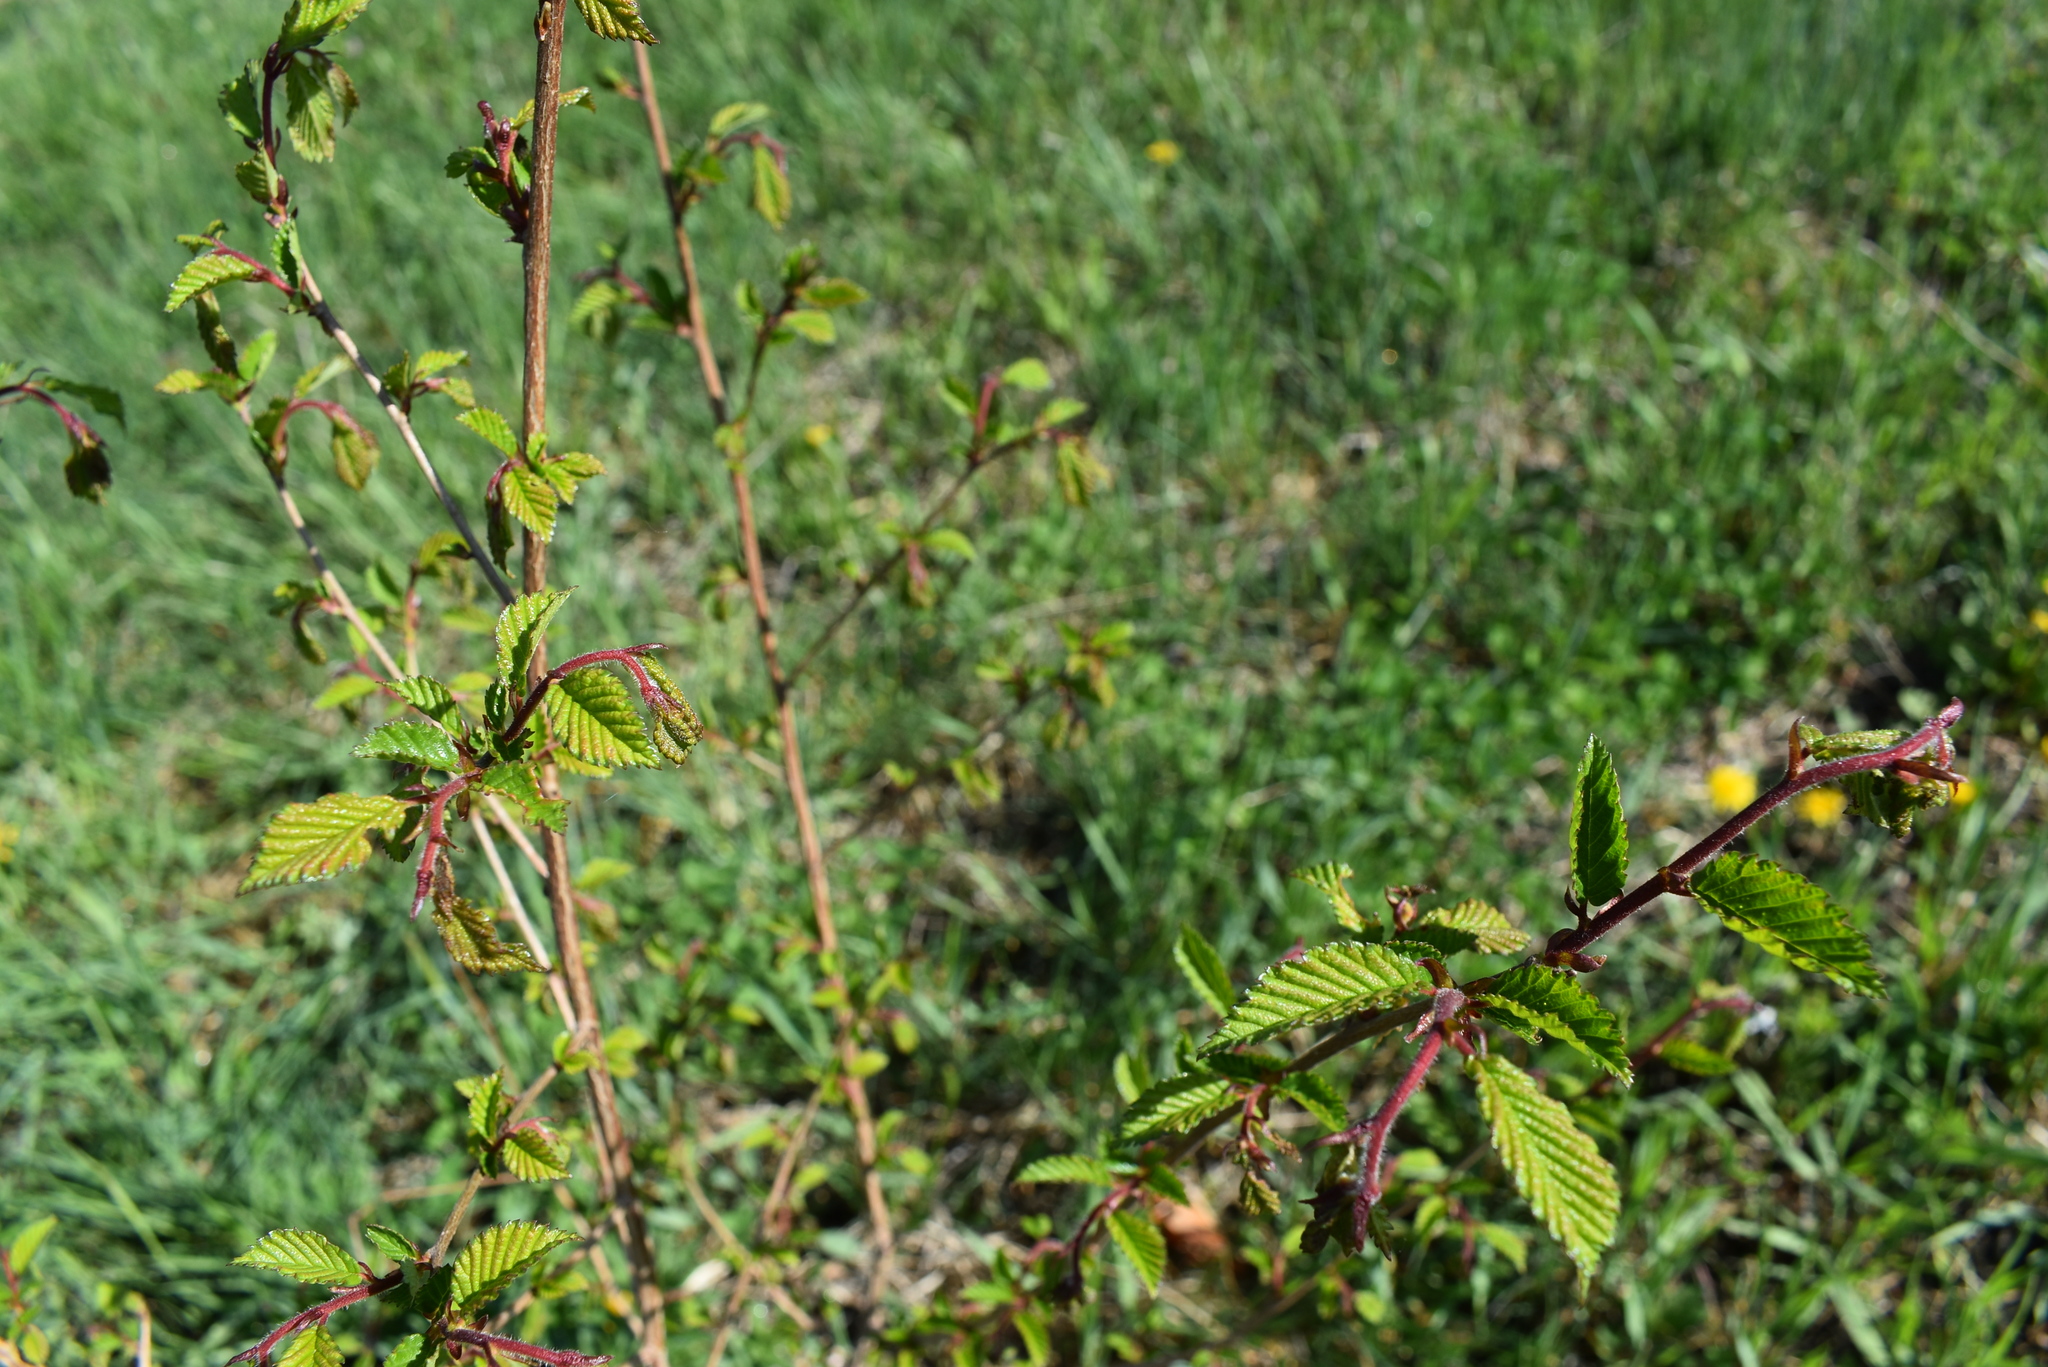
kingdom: Plantae
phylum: Tracheophyta
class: Magnoliopsida
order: Rosales
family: Ulmaceae
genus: Ulmus
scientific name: Ulmus davidiana
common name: Japanese elm
